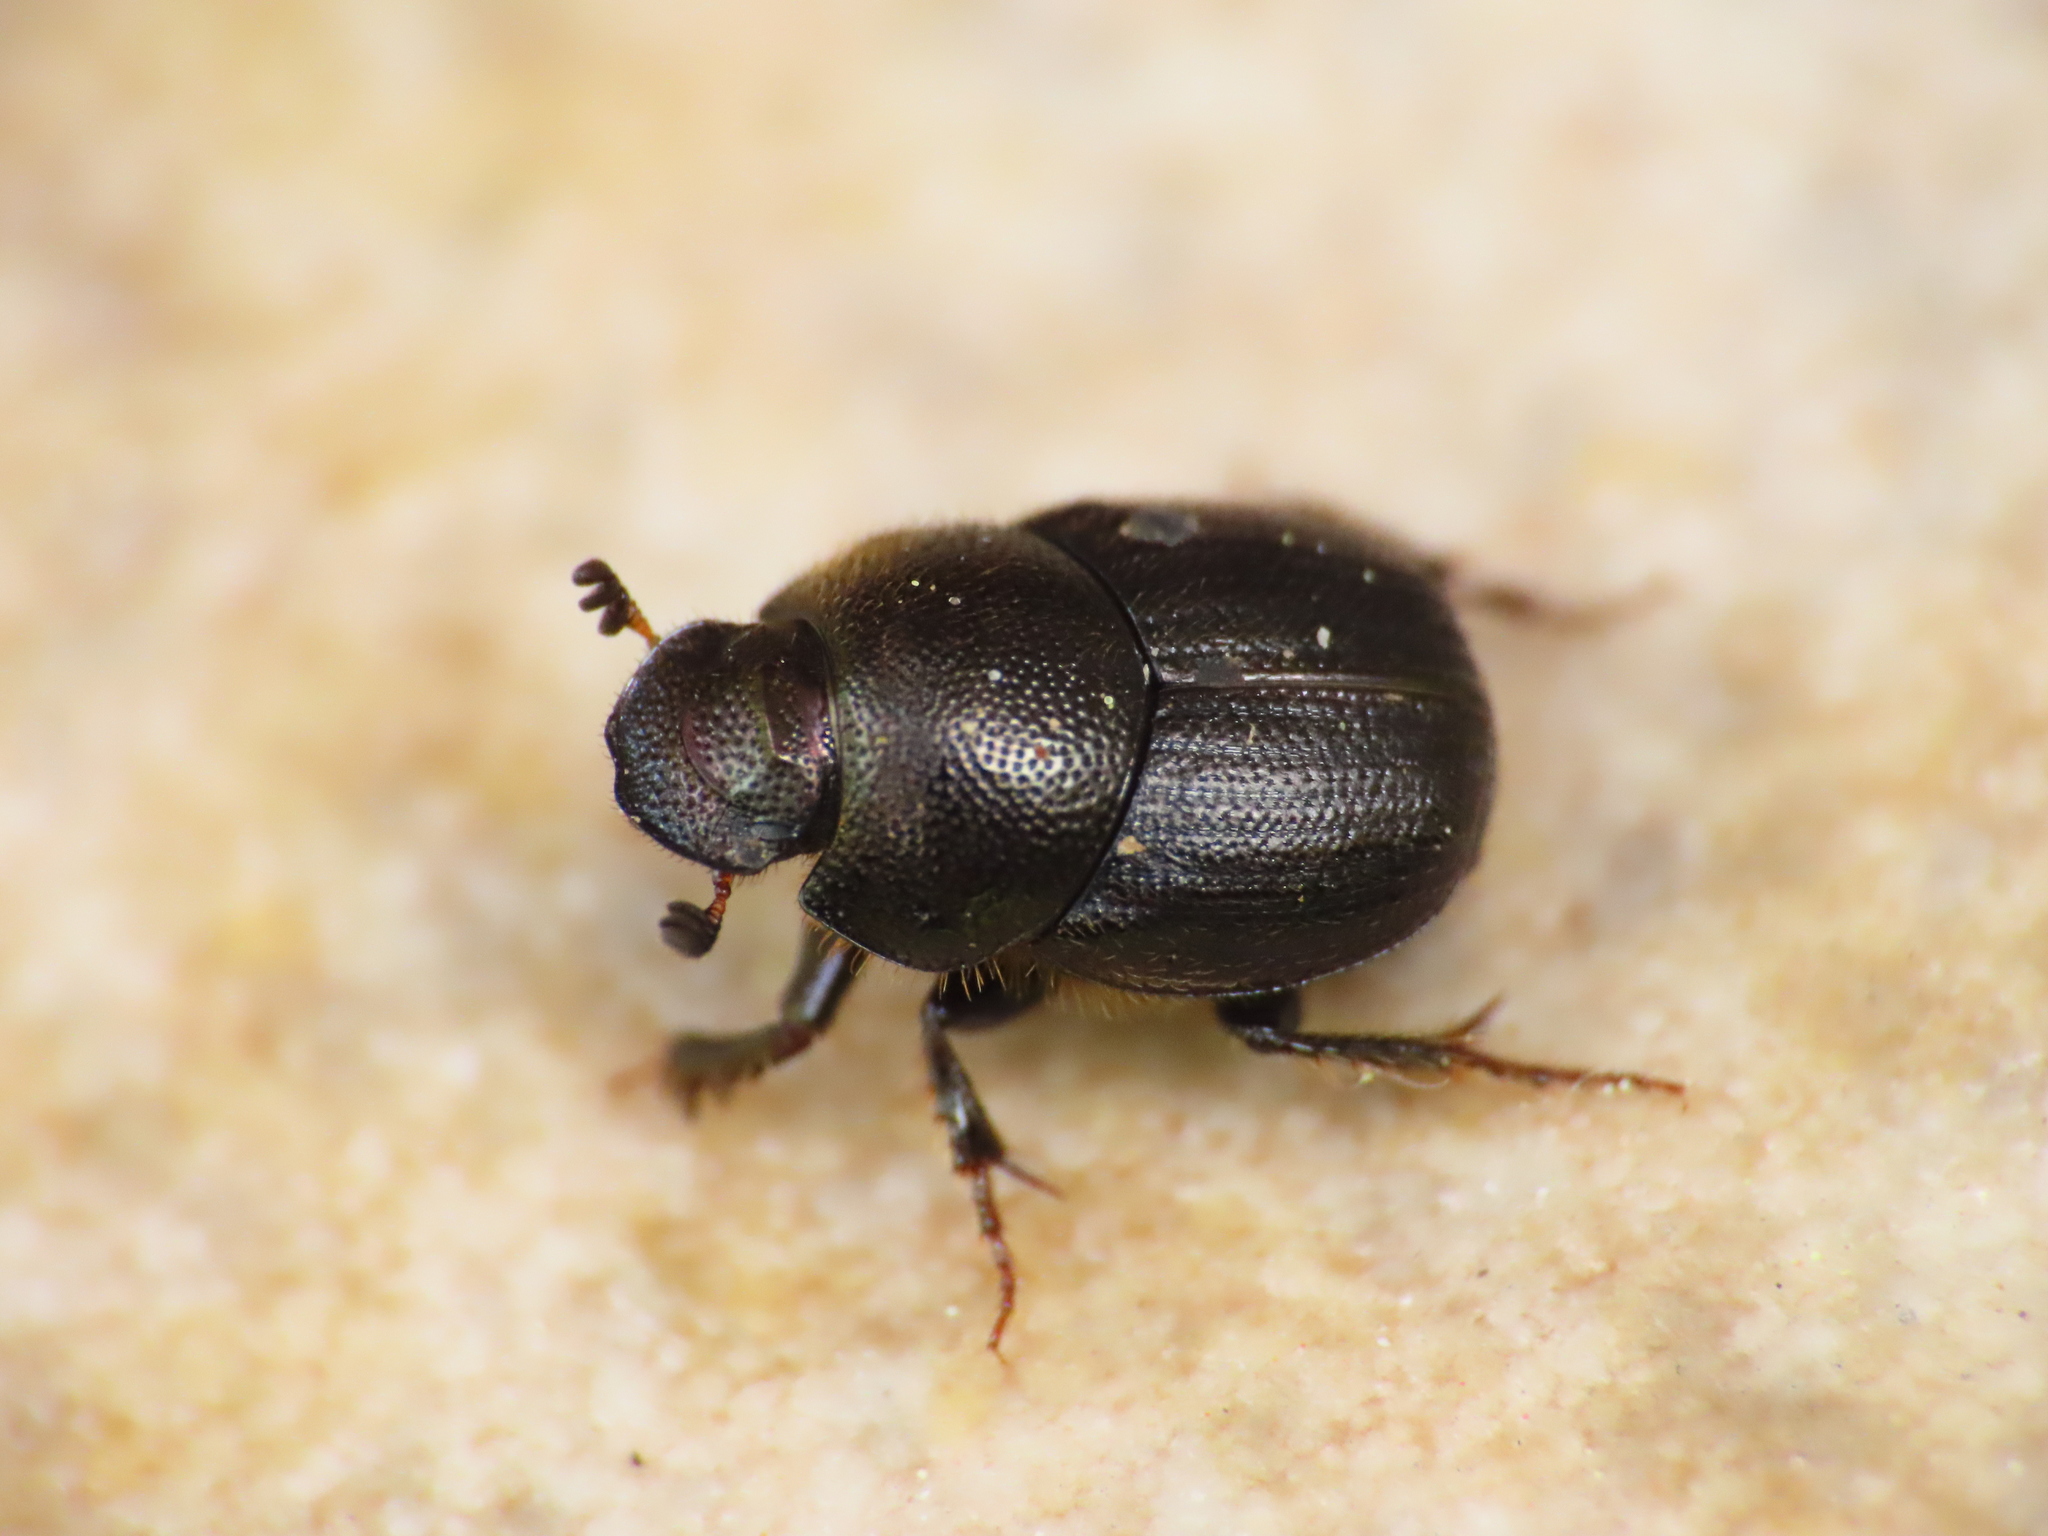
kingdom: Animalia
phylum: Arthropoda
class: Insecta
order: Coleoptera
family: Scarabaeidae
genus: Onthophagus
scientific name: Onthophagus grossepunctatus
